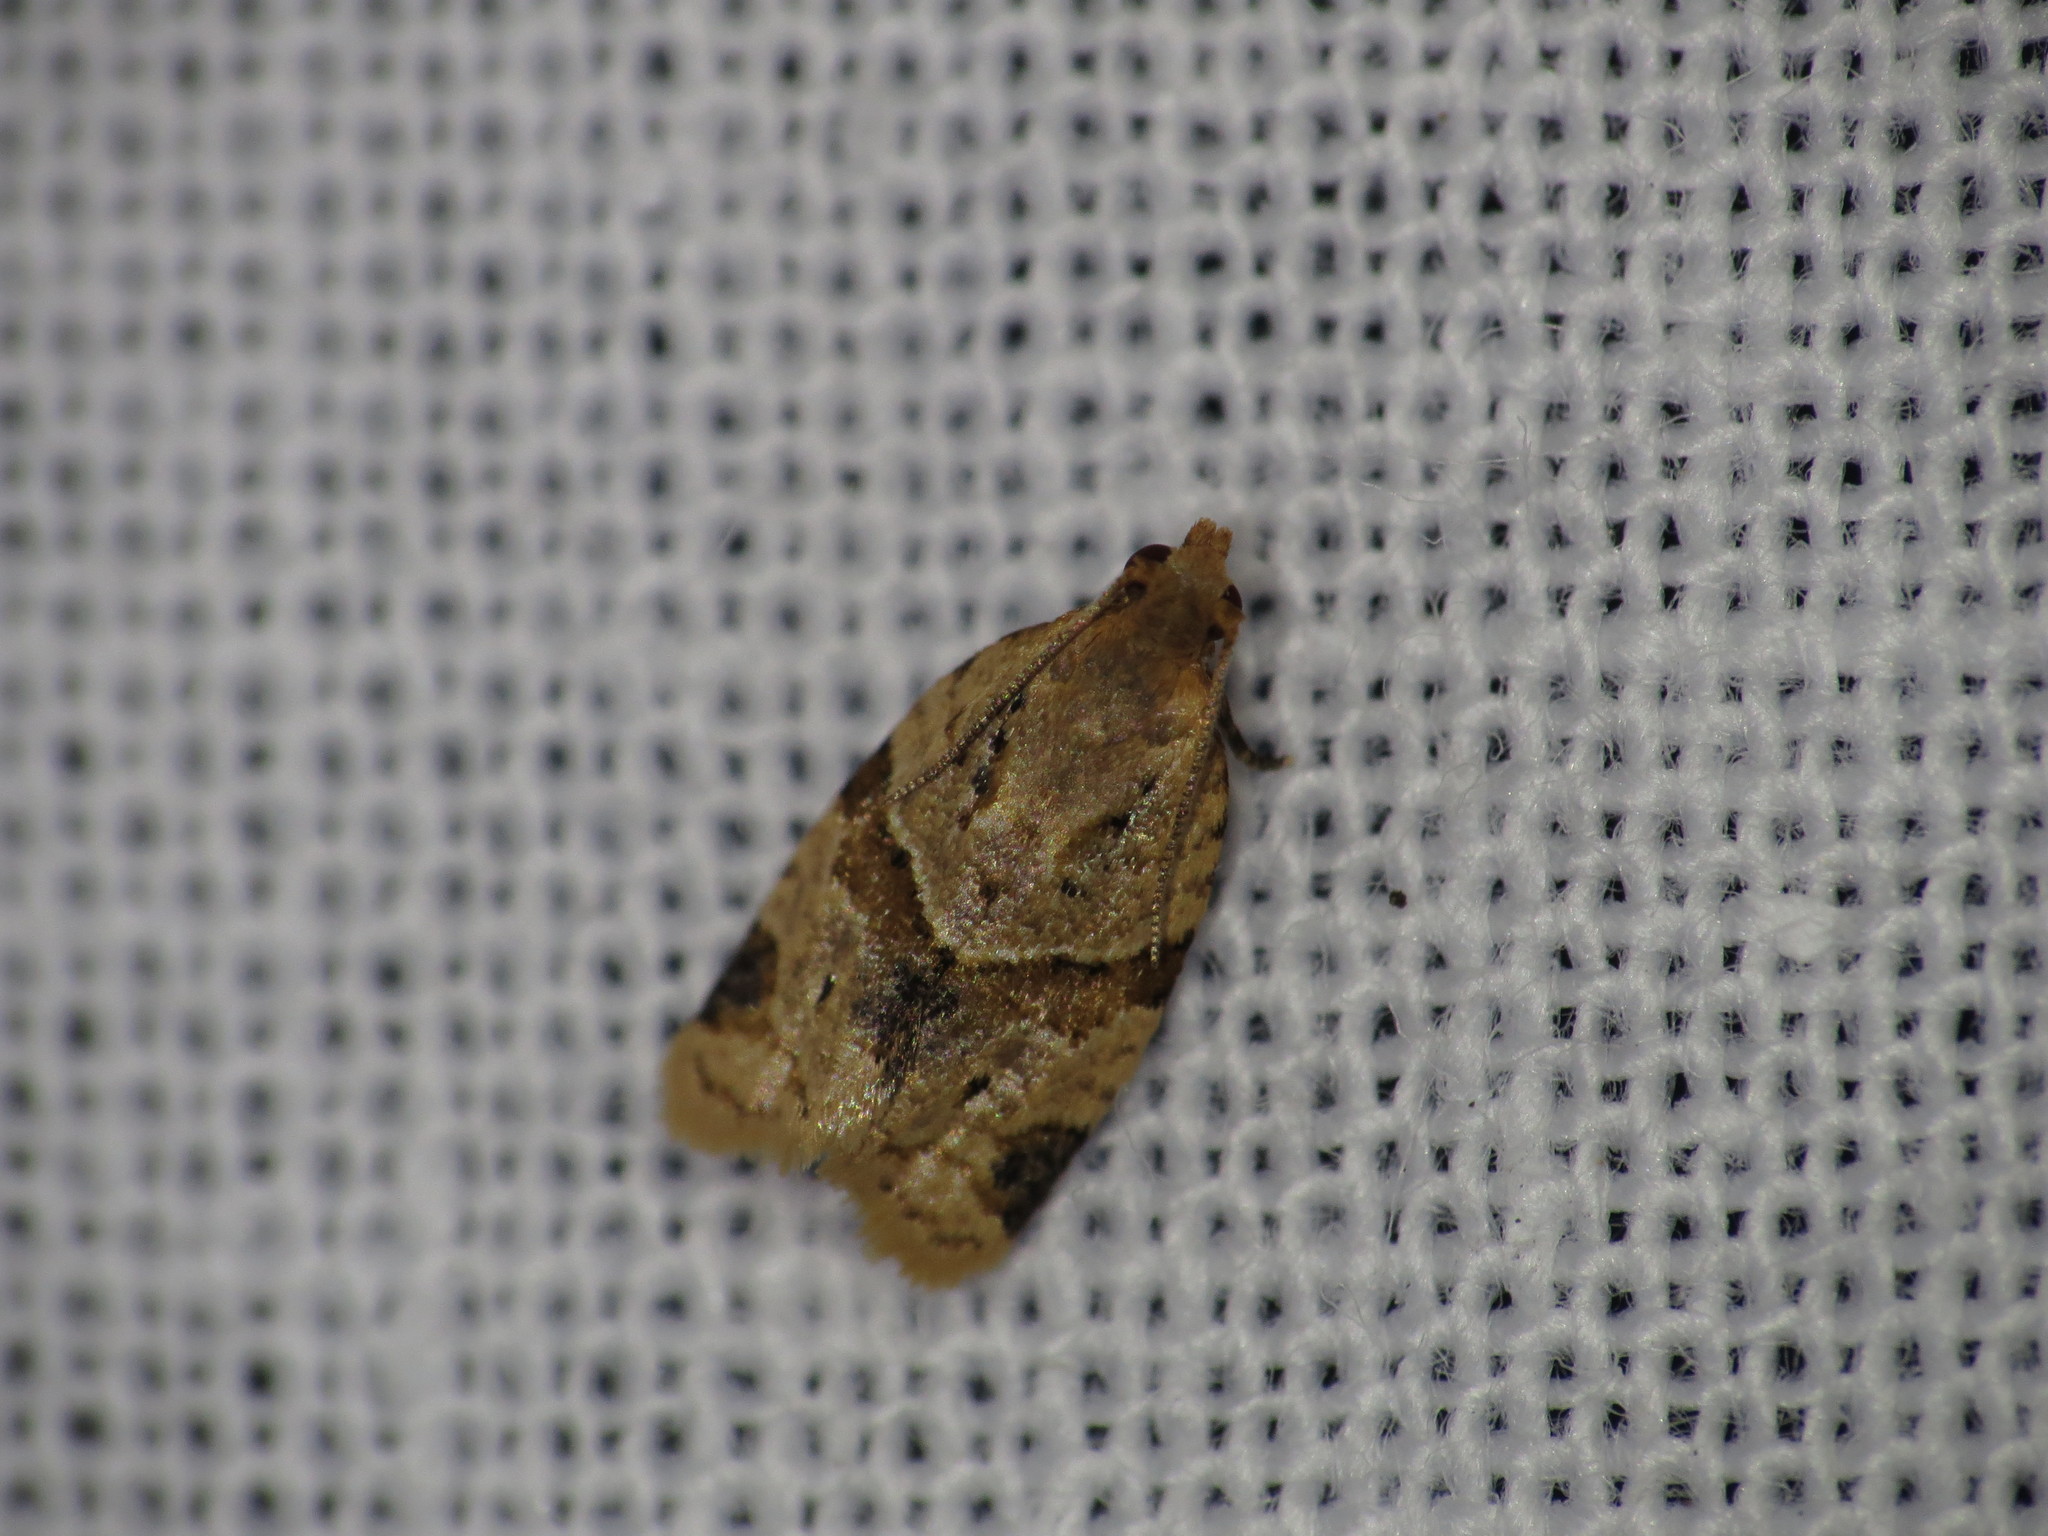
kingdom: Animalia
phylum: Arthropoda
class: Insecta
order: Lepidoptera
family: Tortricidae
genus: Clepsis
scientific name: Clepsis peritana
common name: Garden tortrix
